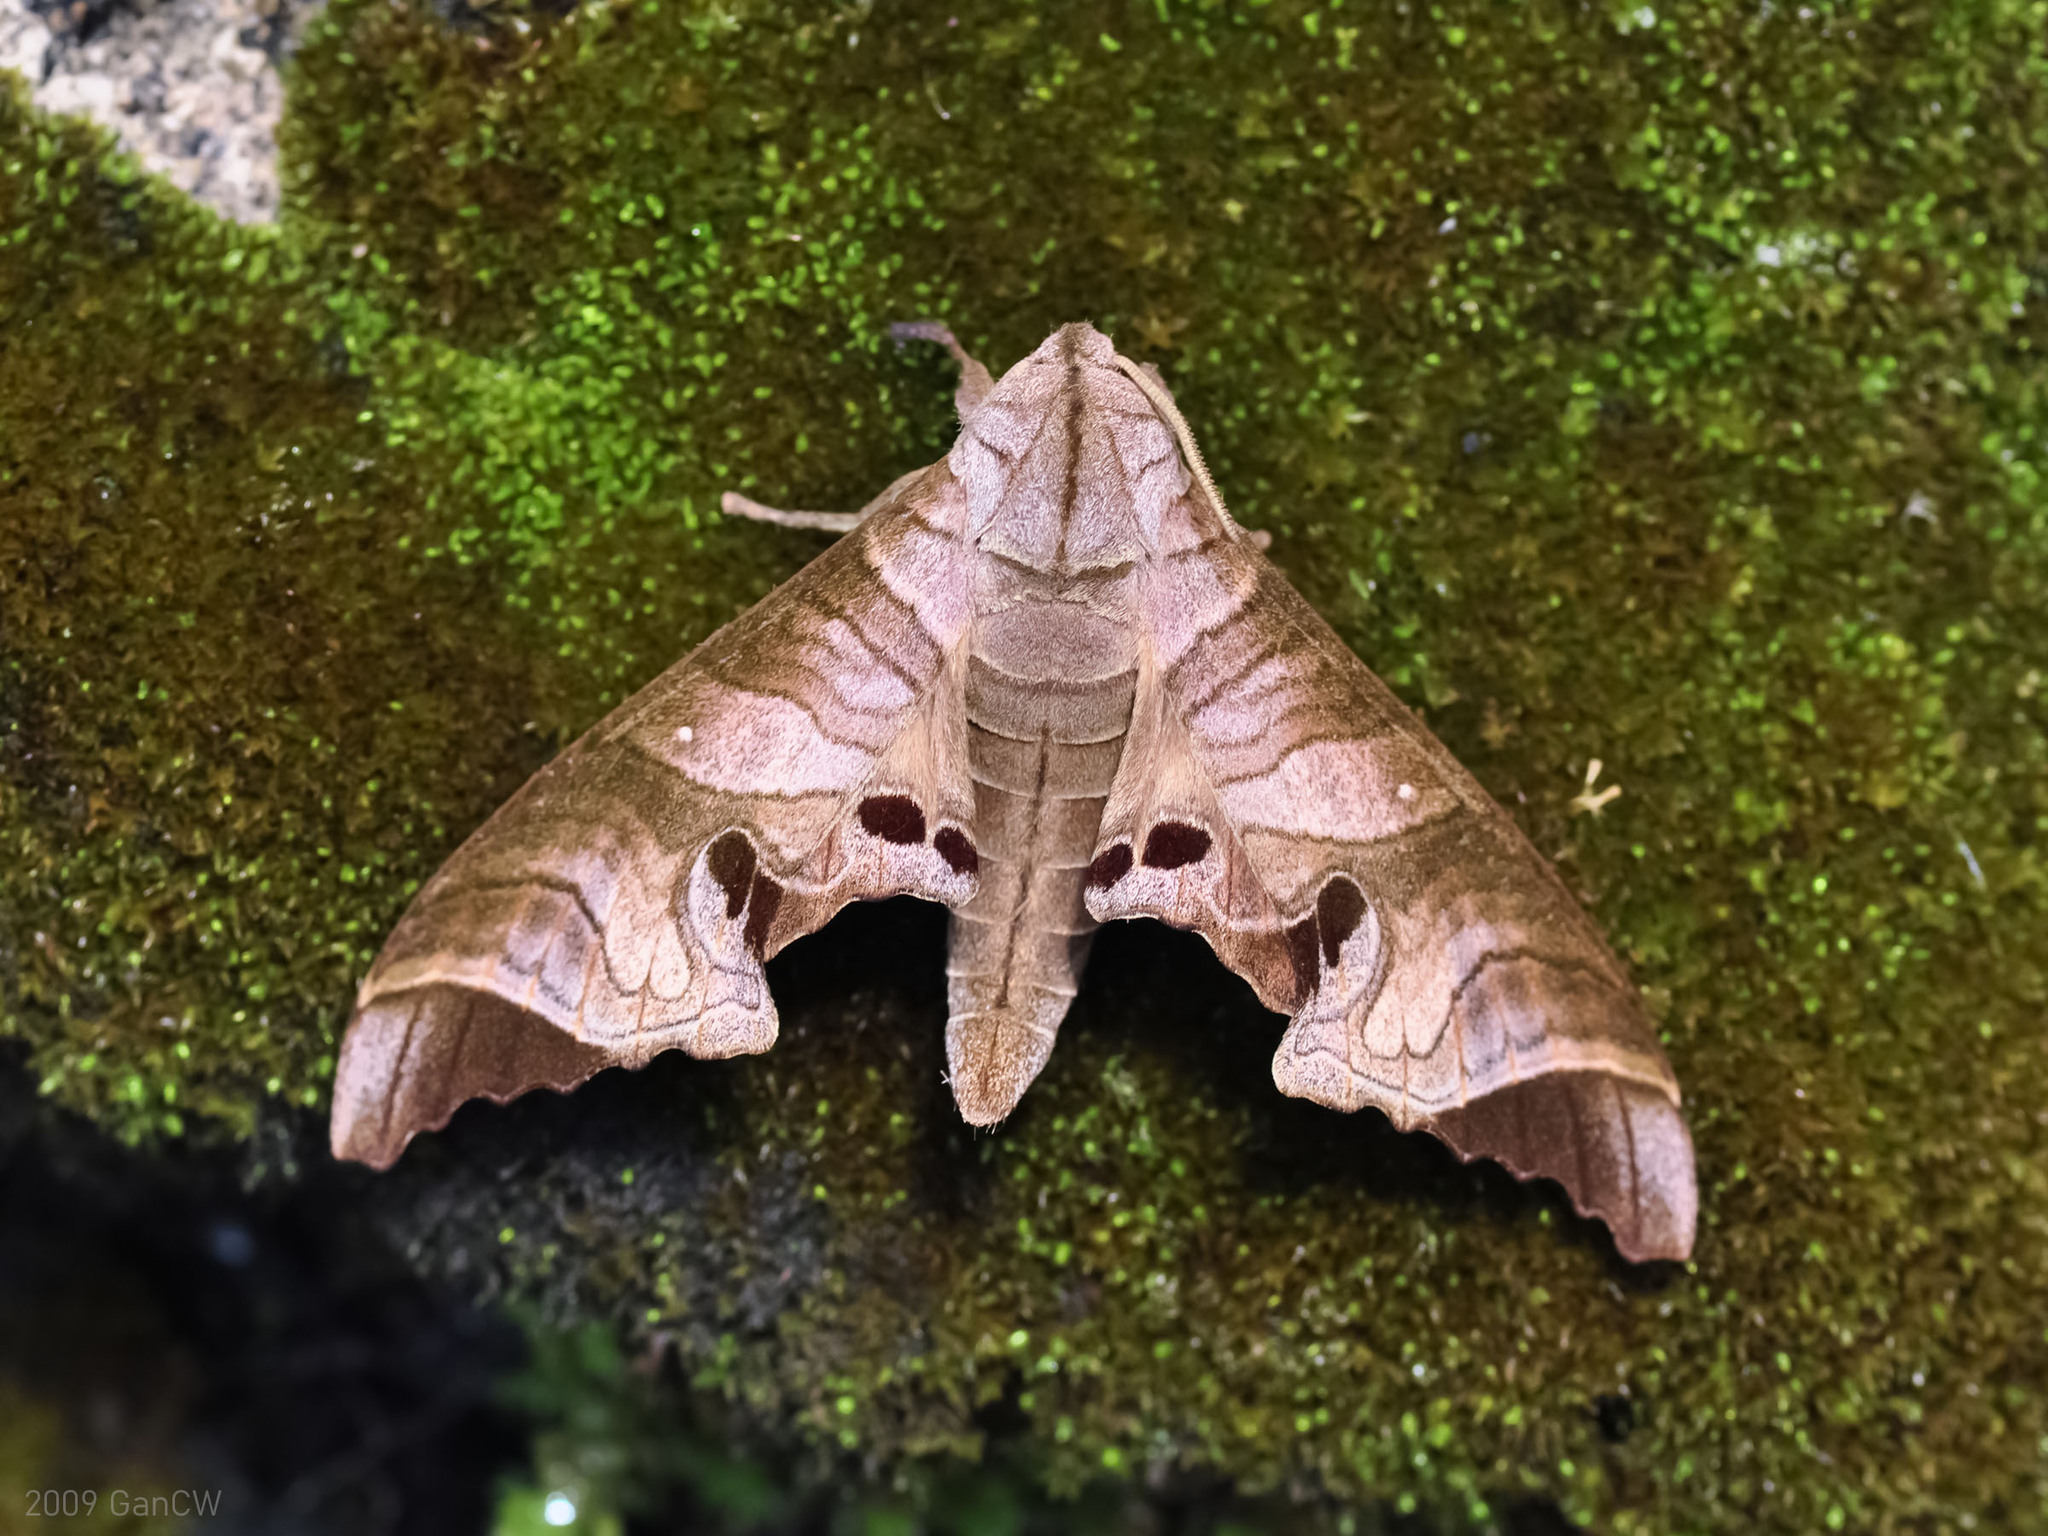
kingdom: Animalia
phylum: Arthropoda
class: Insecta
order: Lepidoptera
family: Sphingidae
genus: Marumba
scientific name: Marumba spectabilis
